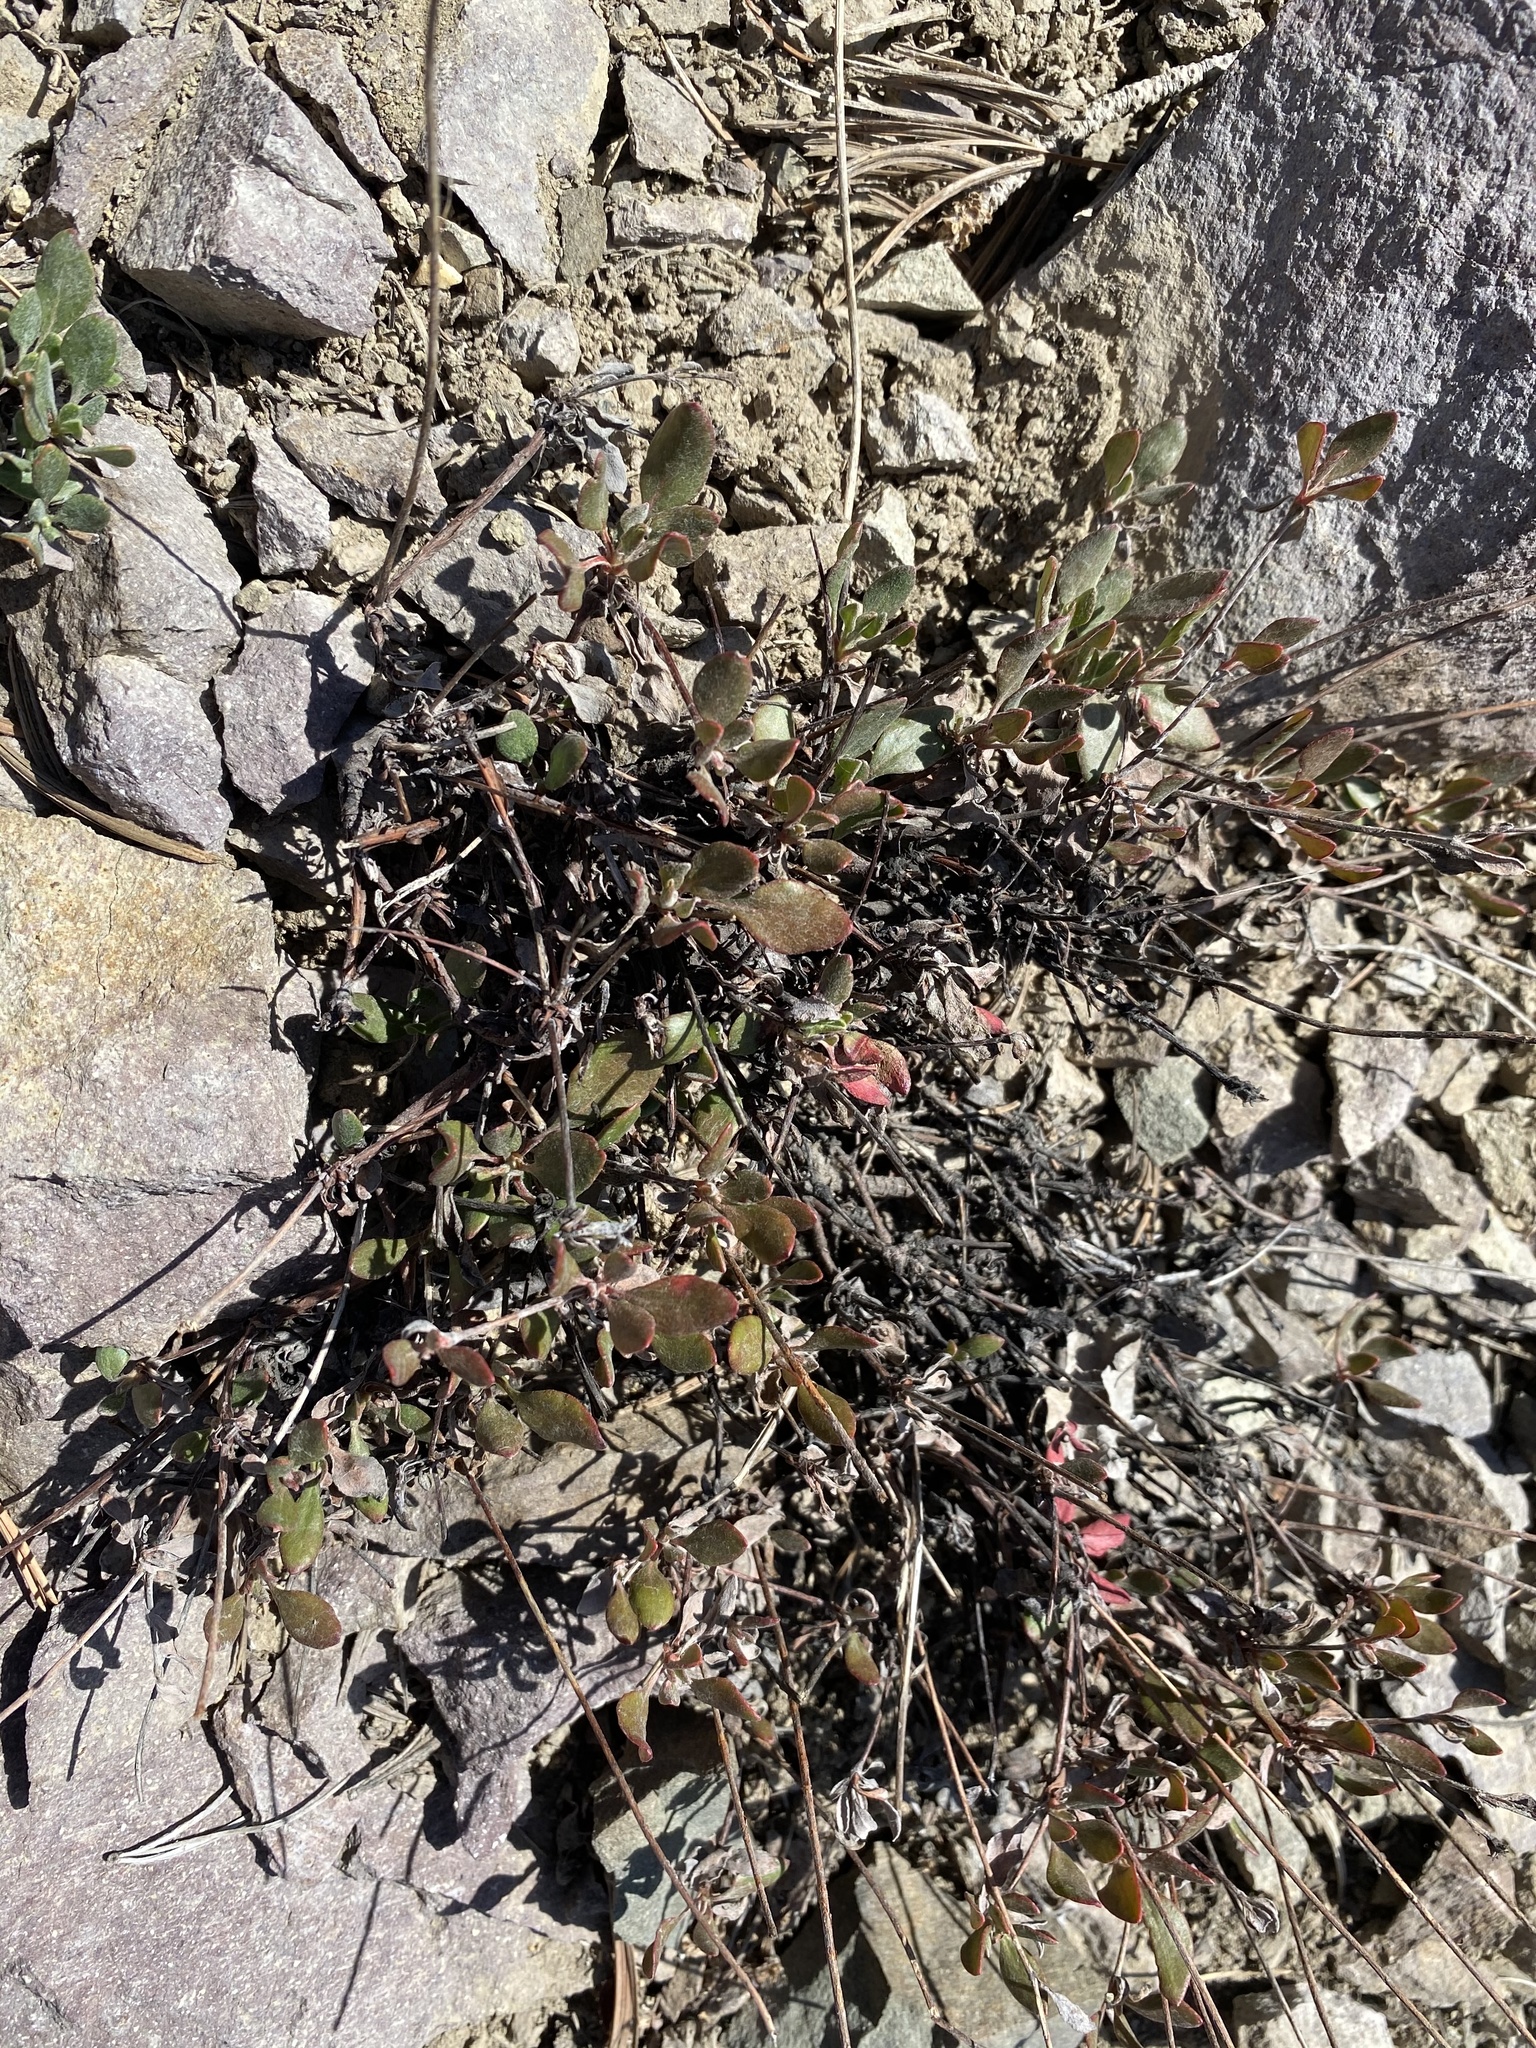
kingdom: Plantae
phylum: Tracheophyta
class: Magnoliopsida
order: Caryophyllales
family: Polygonaceae
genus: Eriogonum
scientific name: Eriogonum umbellatum
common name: Sulfur-buckwheat
